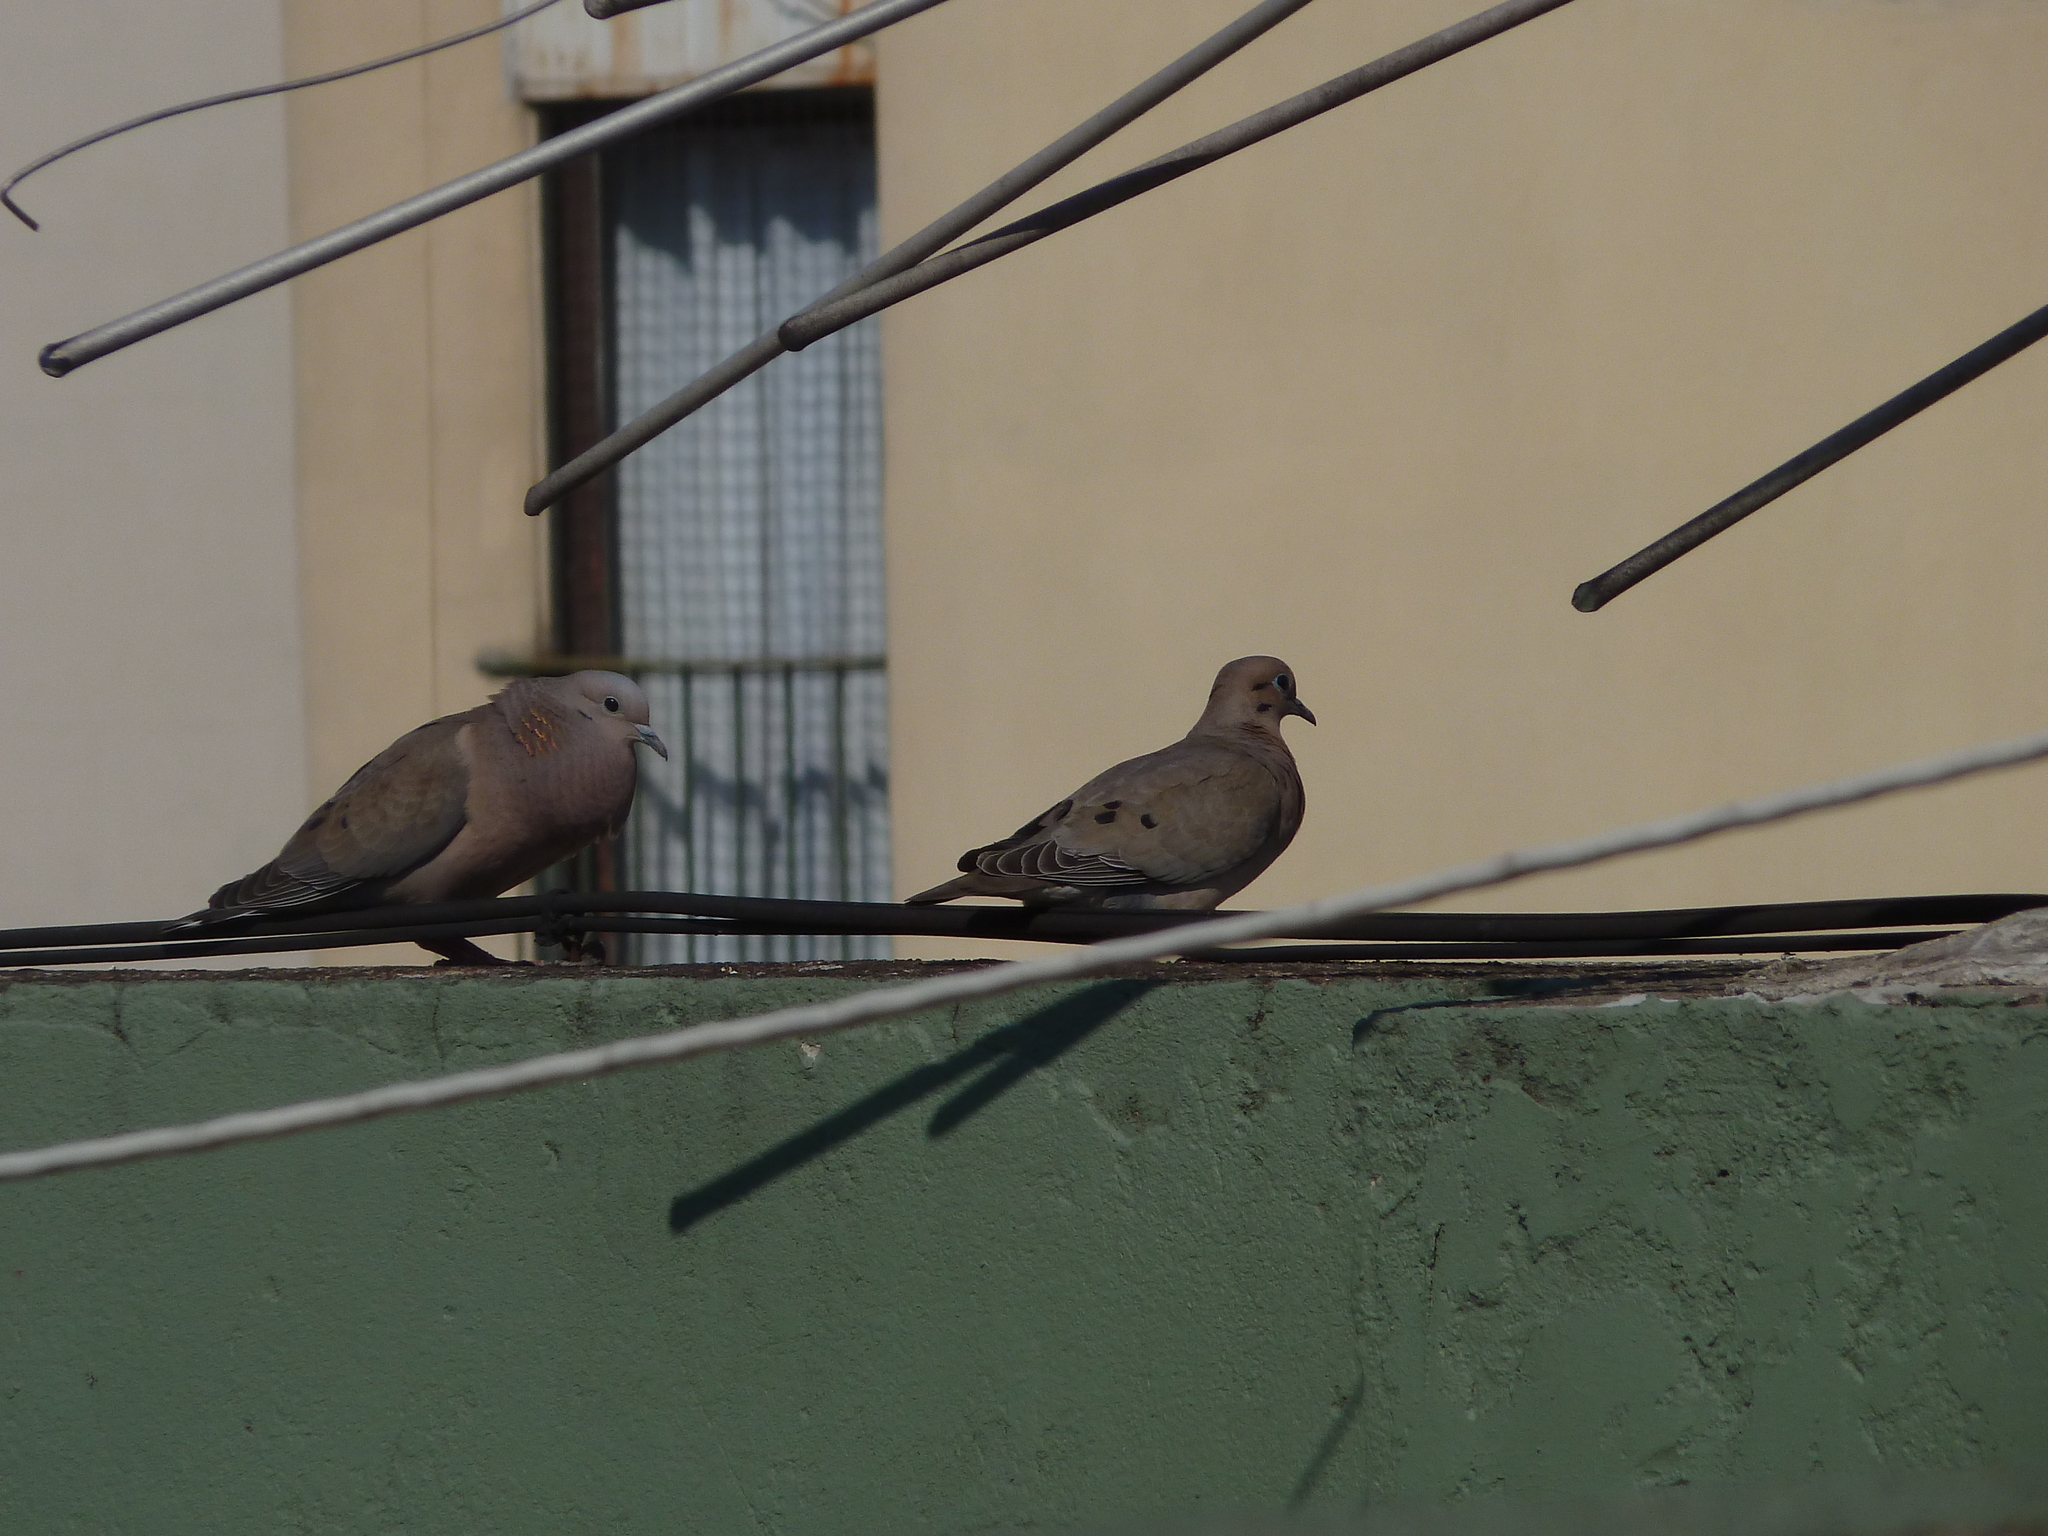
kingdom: Animalia
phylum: Chordata
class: Aves
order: Columbiformes
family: Columbidae
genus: Zenaida
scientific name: Zenaida auriculata
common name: Eared dove
